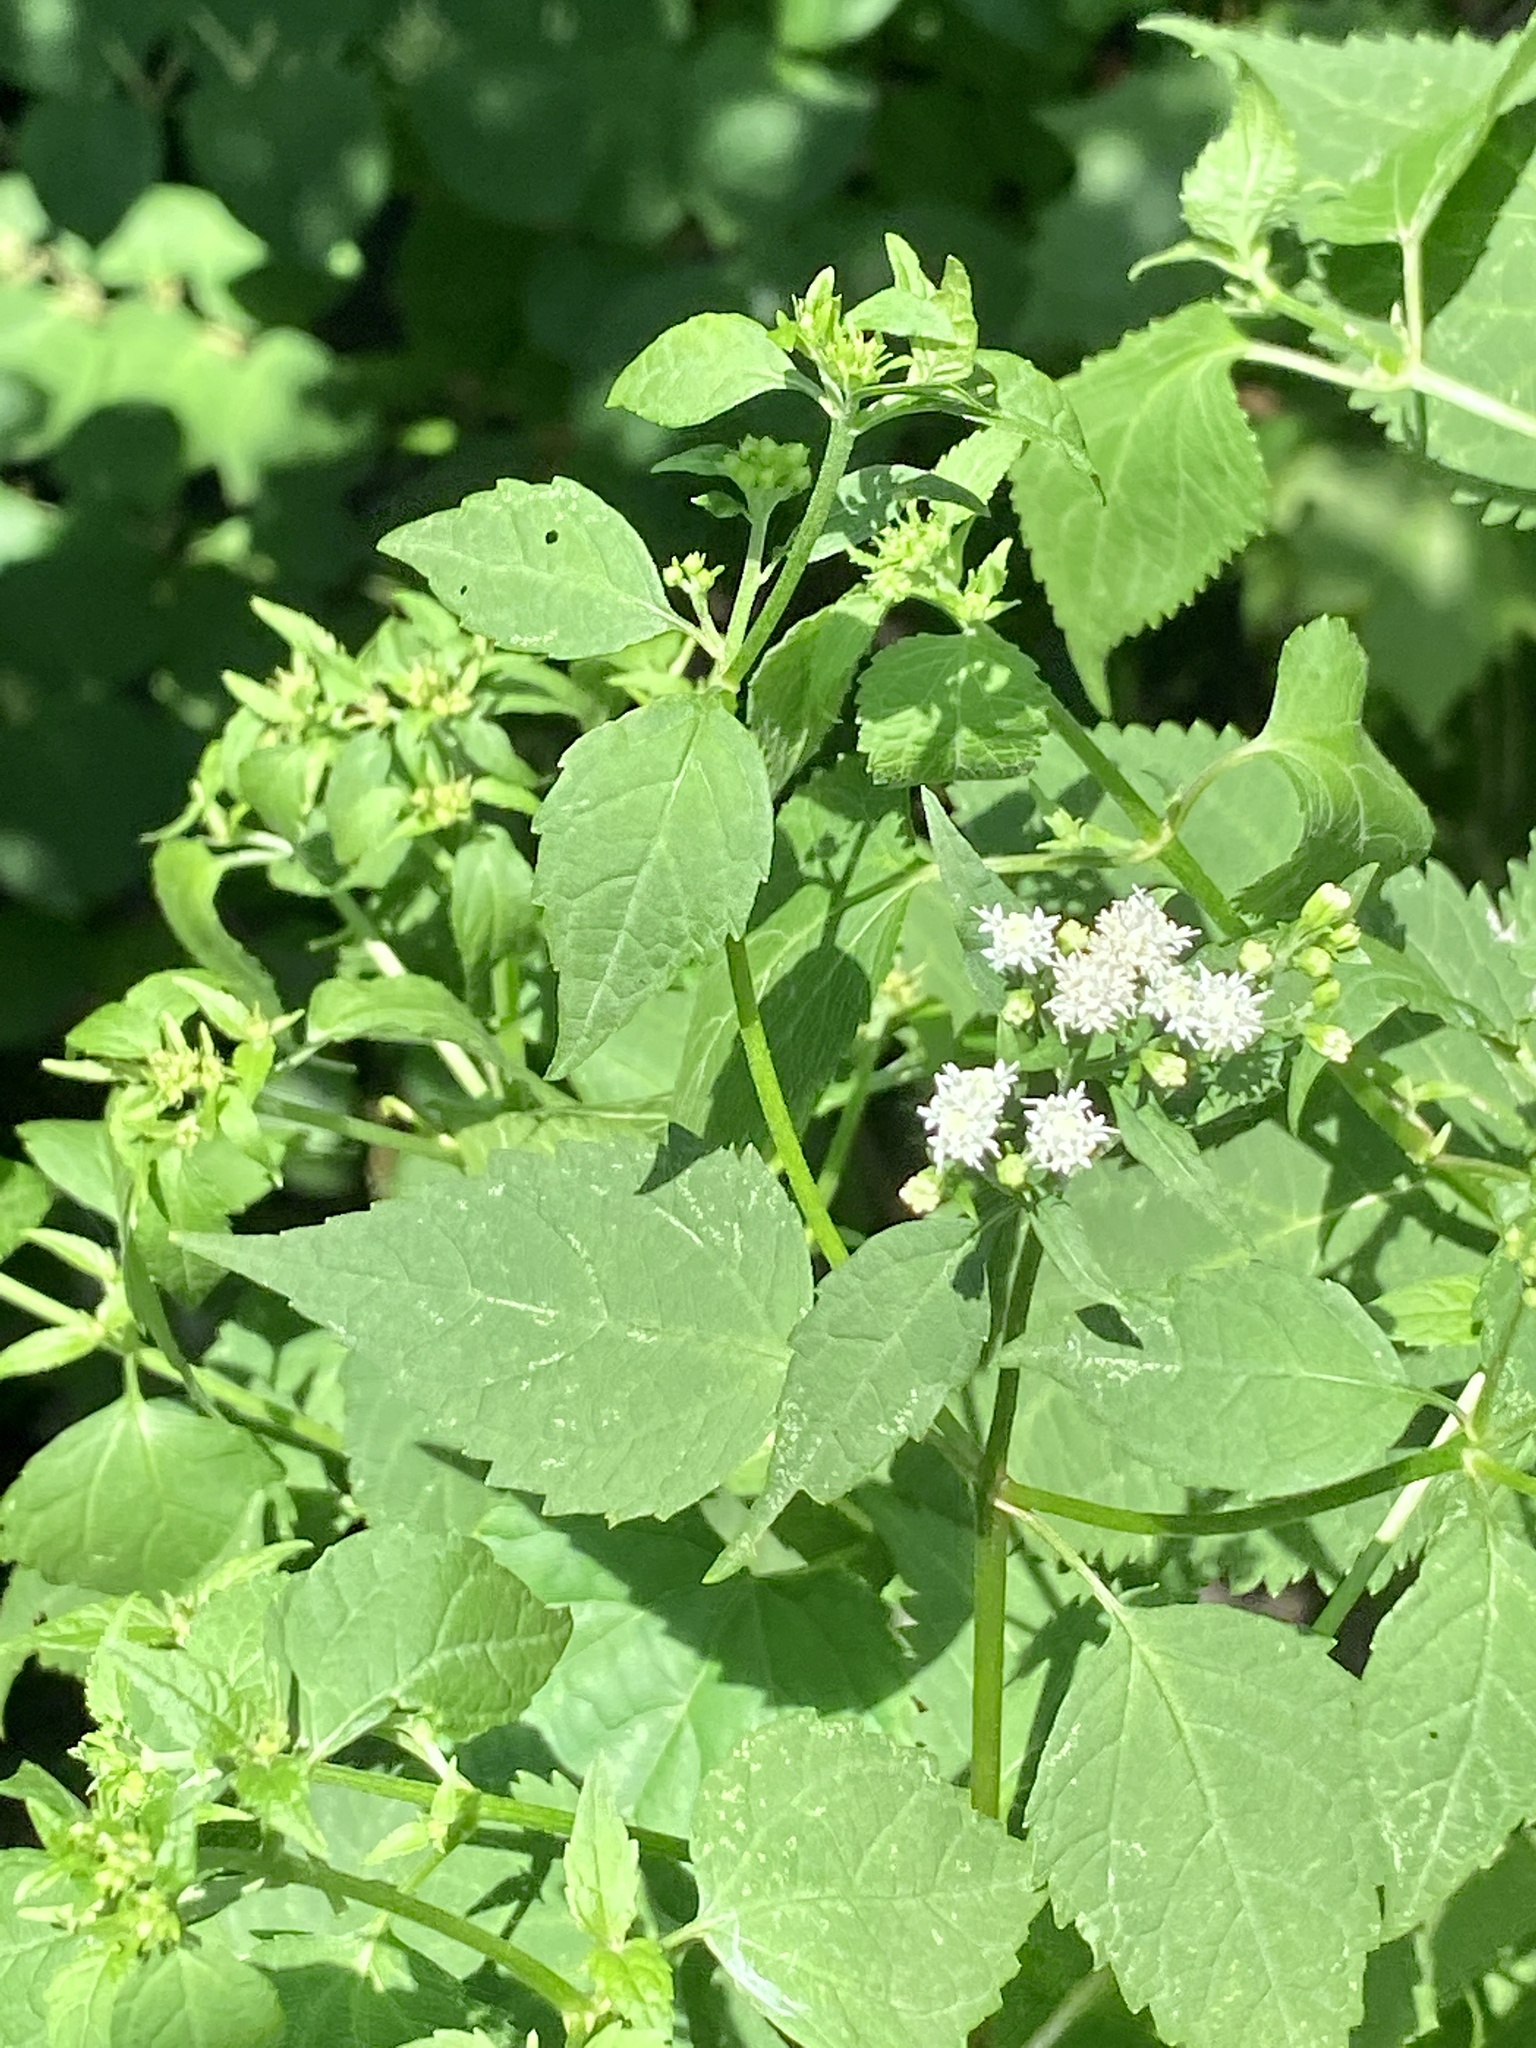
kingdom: Plantae
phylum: Tracheophyta
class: Magnoliopsida
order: Asterales
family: Asteraceae
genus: Ageratina
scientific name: Ageratina altissima
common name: White snakeroot
